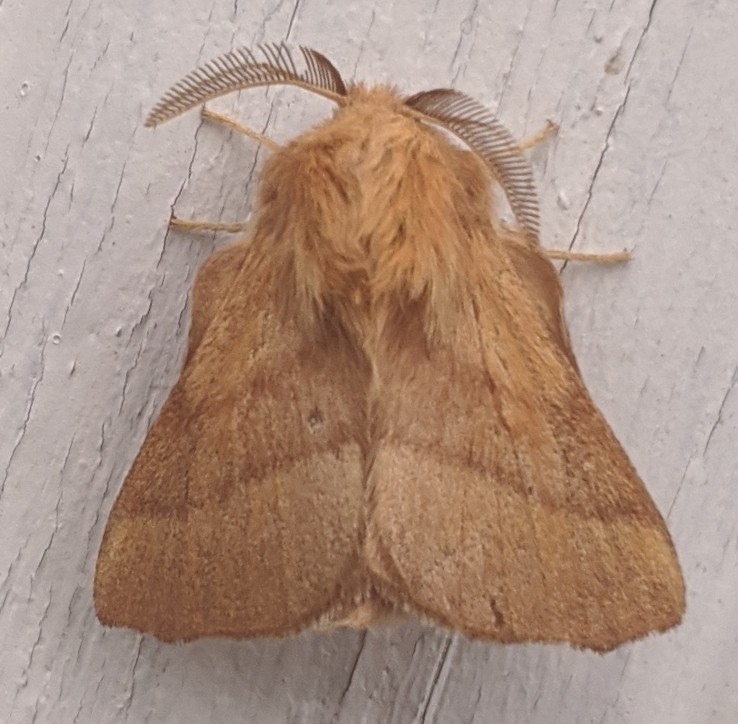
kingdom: Animalia
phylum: Arthropoda
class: Insecta
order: Lepidoptera
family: Lasiocampidae
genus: Malacosoma
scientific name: Malacosoma disstria
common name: Forest tent caterpillar
